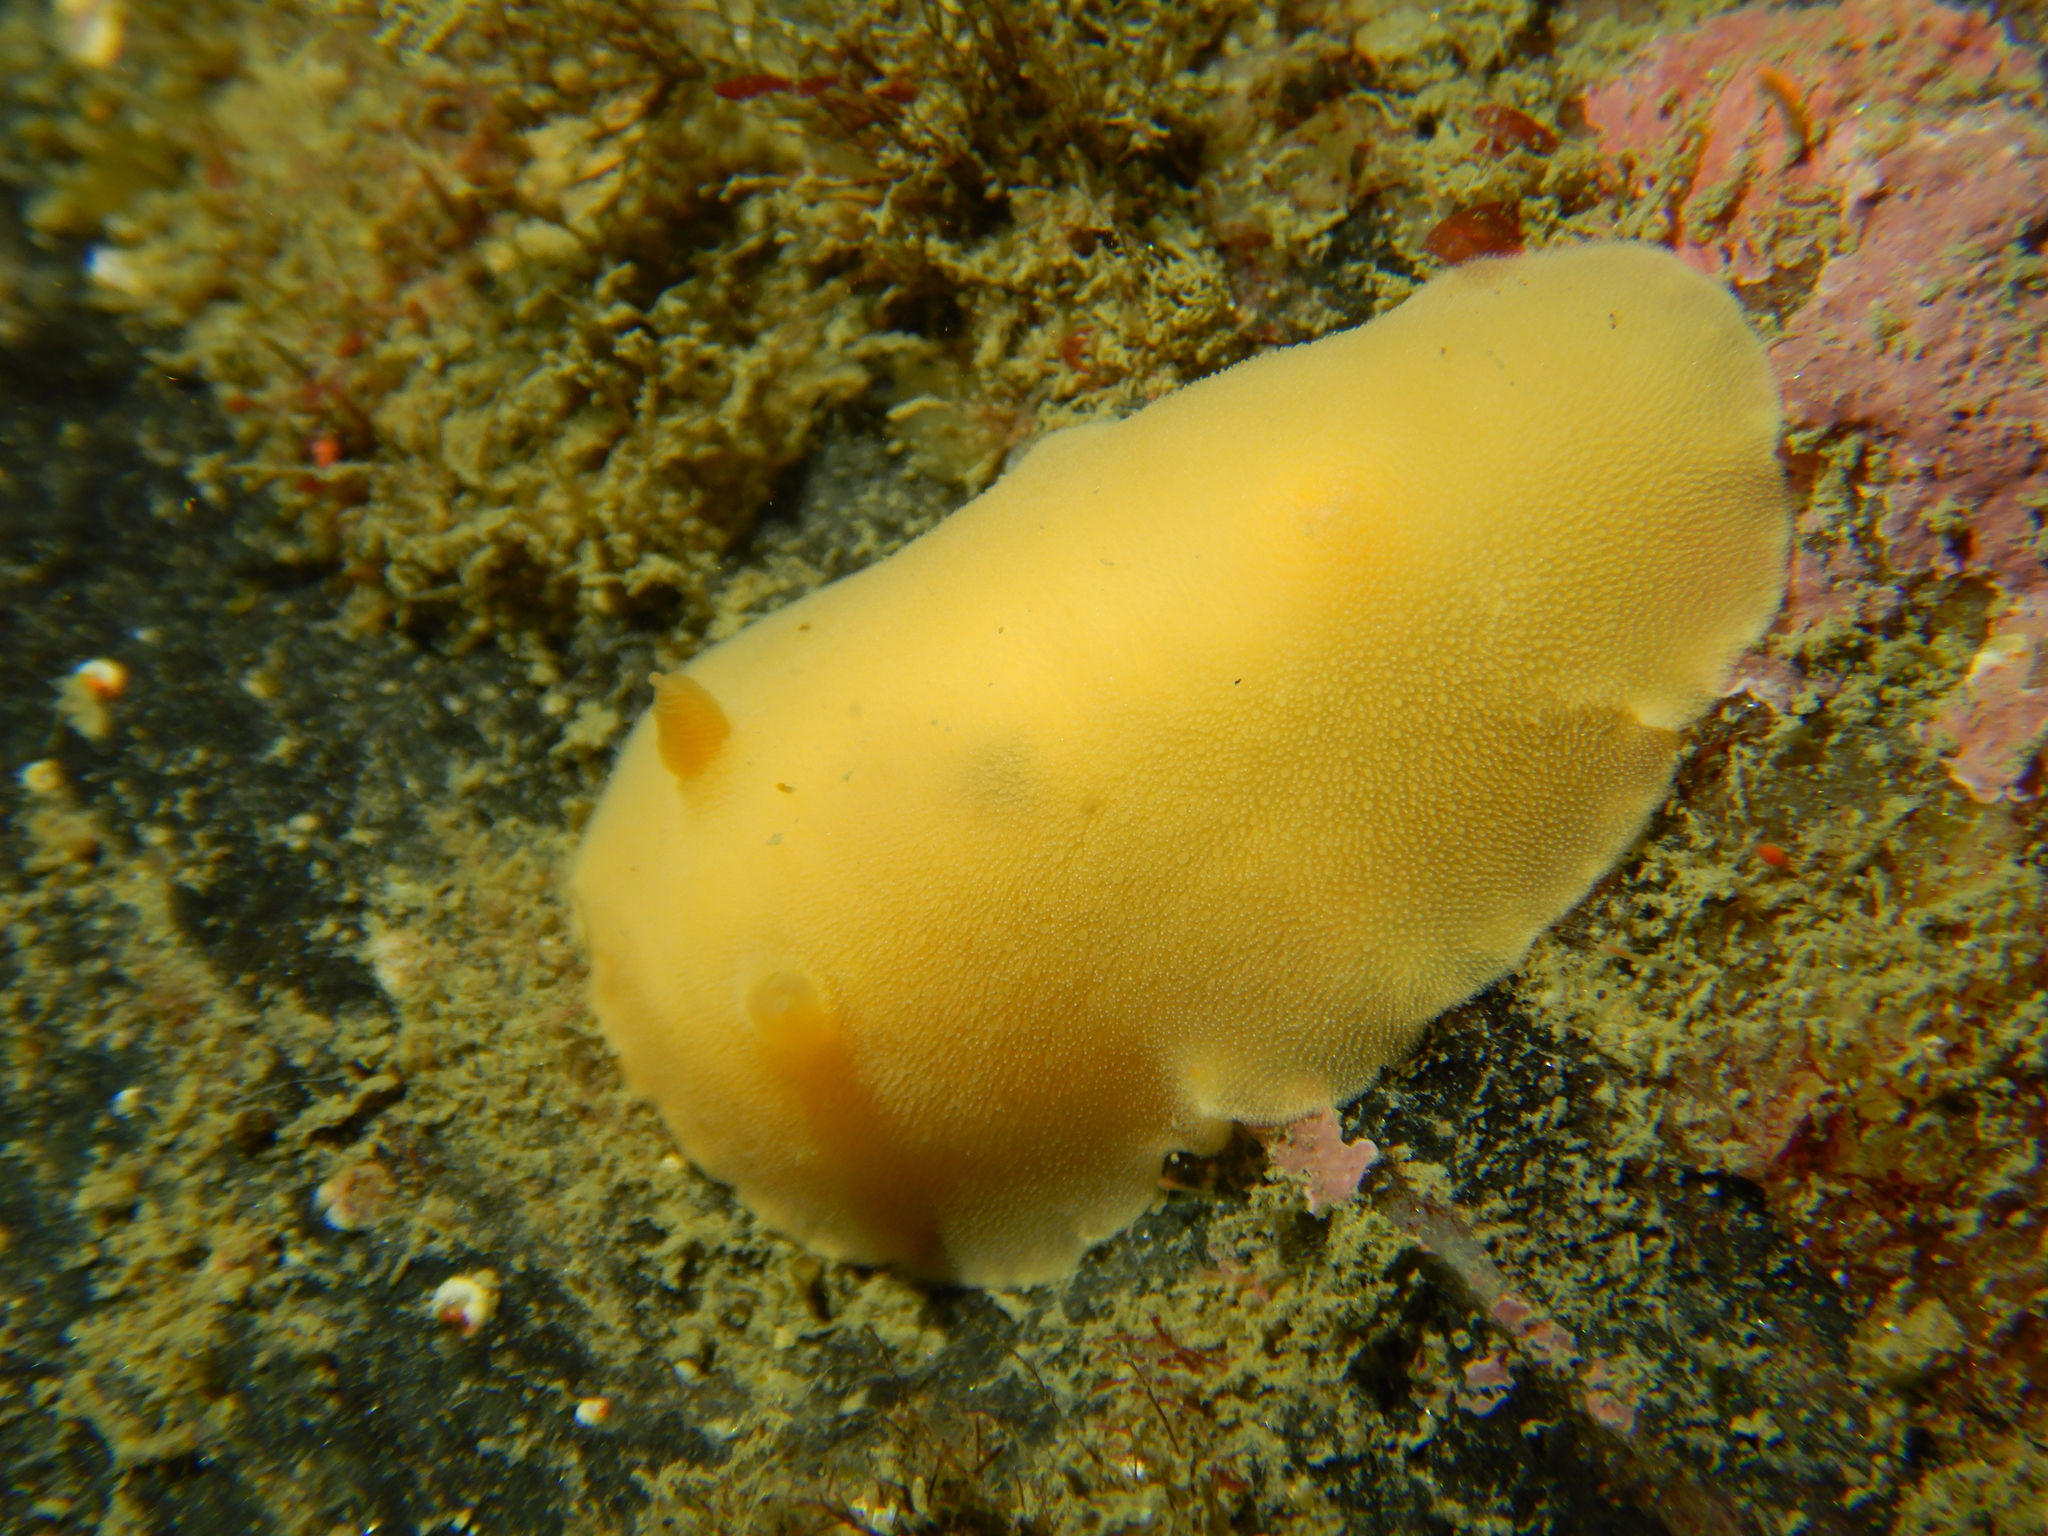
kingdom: Animalia
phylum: Mollusca
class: Gastropoda
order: Nudibranchia
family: Discodorididae
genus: Gargamella
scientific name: Gargamella immaculata
